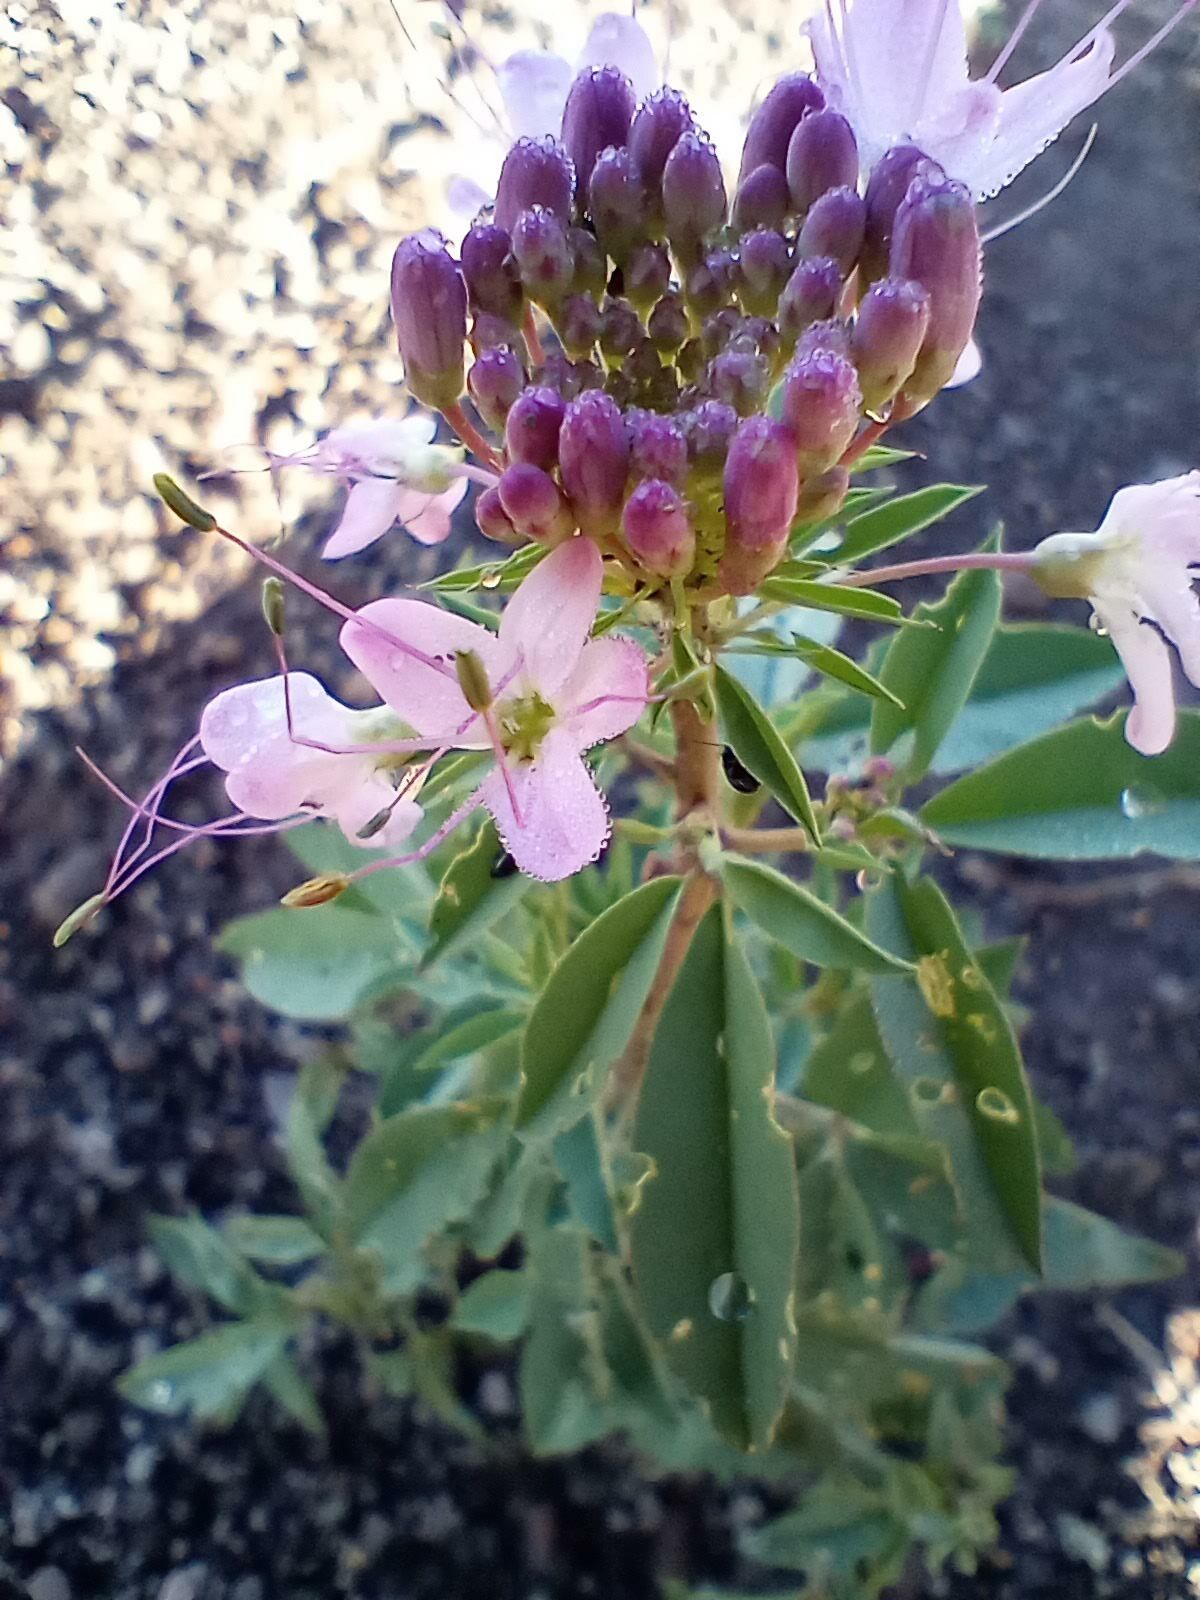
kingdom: Plantae
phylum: Tracheophyta
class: Magnoliopsida
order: Brassicales
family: Cleomaceae
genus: Cleomella
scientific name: Cleomella serrulata
